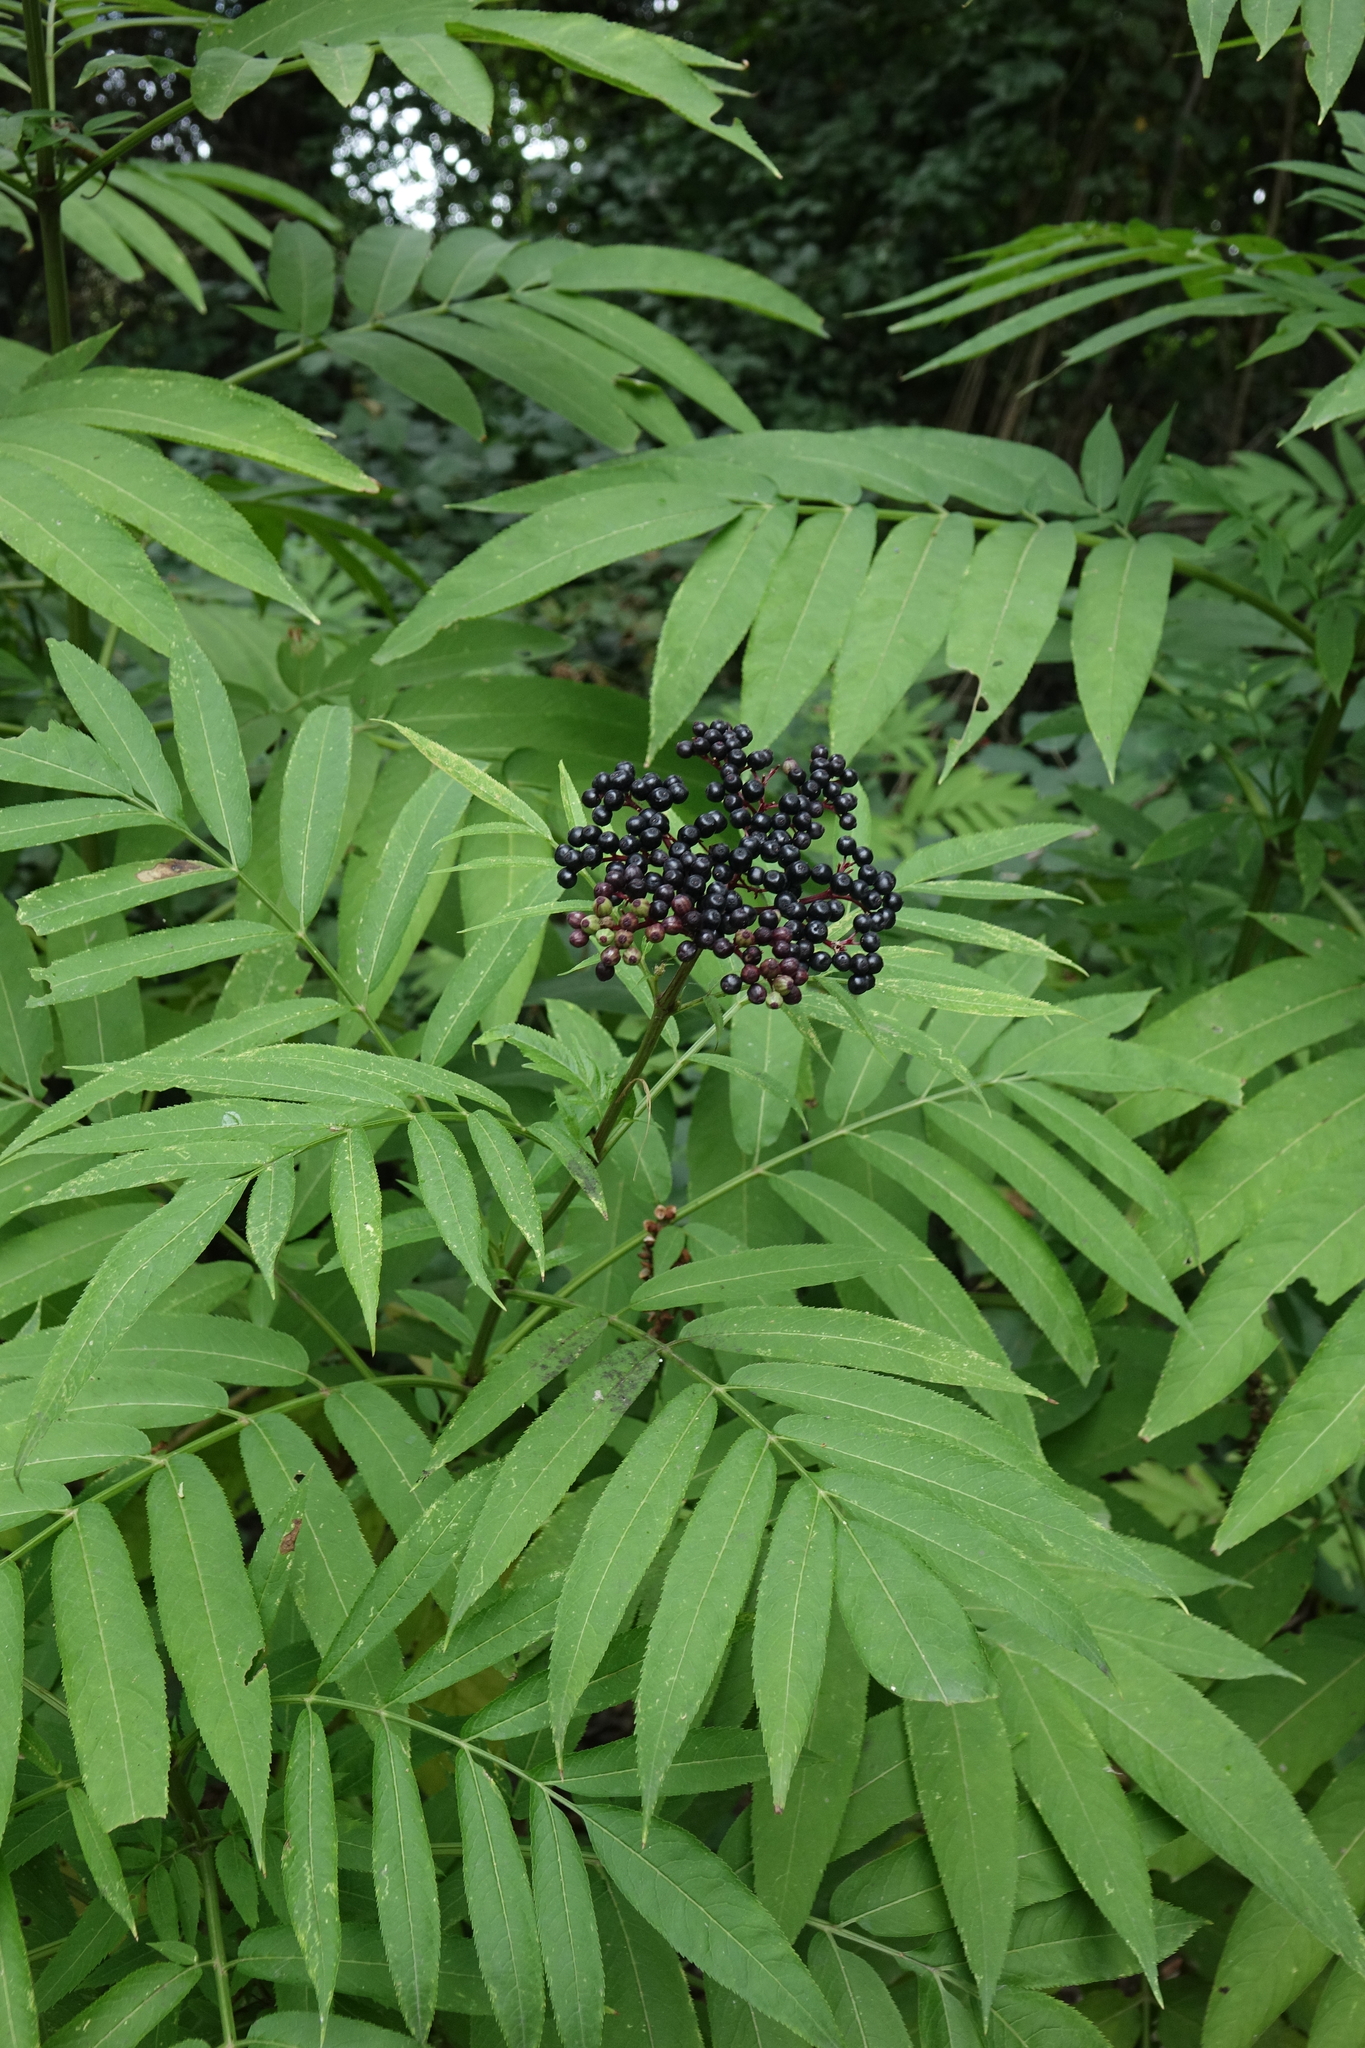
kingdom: Plantae
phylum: Tracheophyta
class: Magnoliopsida
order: Dipsacales
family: Viburnaceae
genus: Sambucus
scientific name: Sambucus ebulus
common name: Dwarf elder
